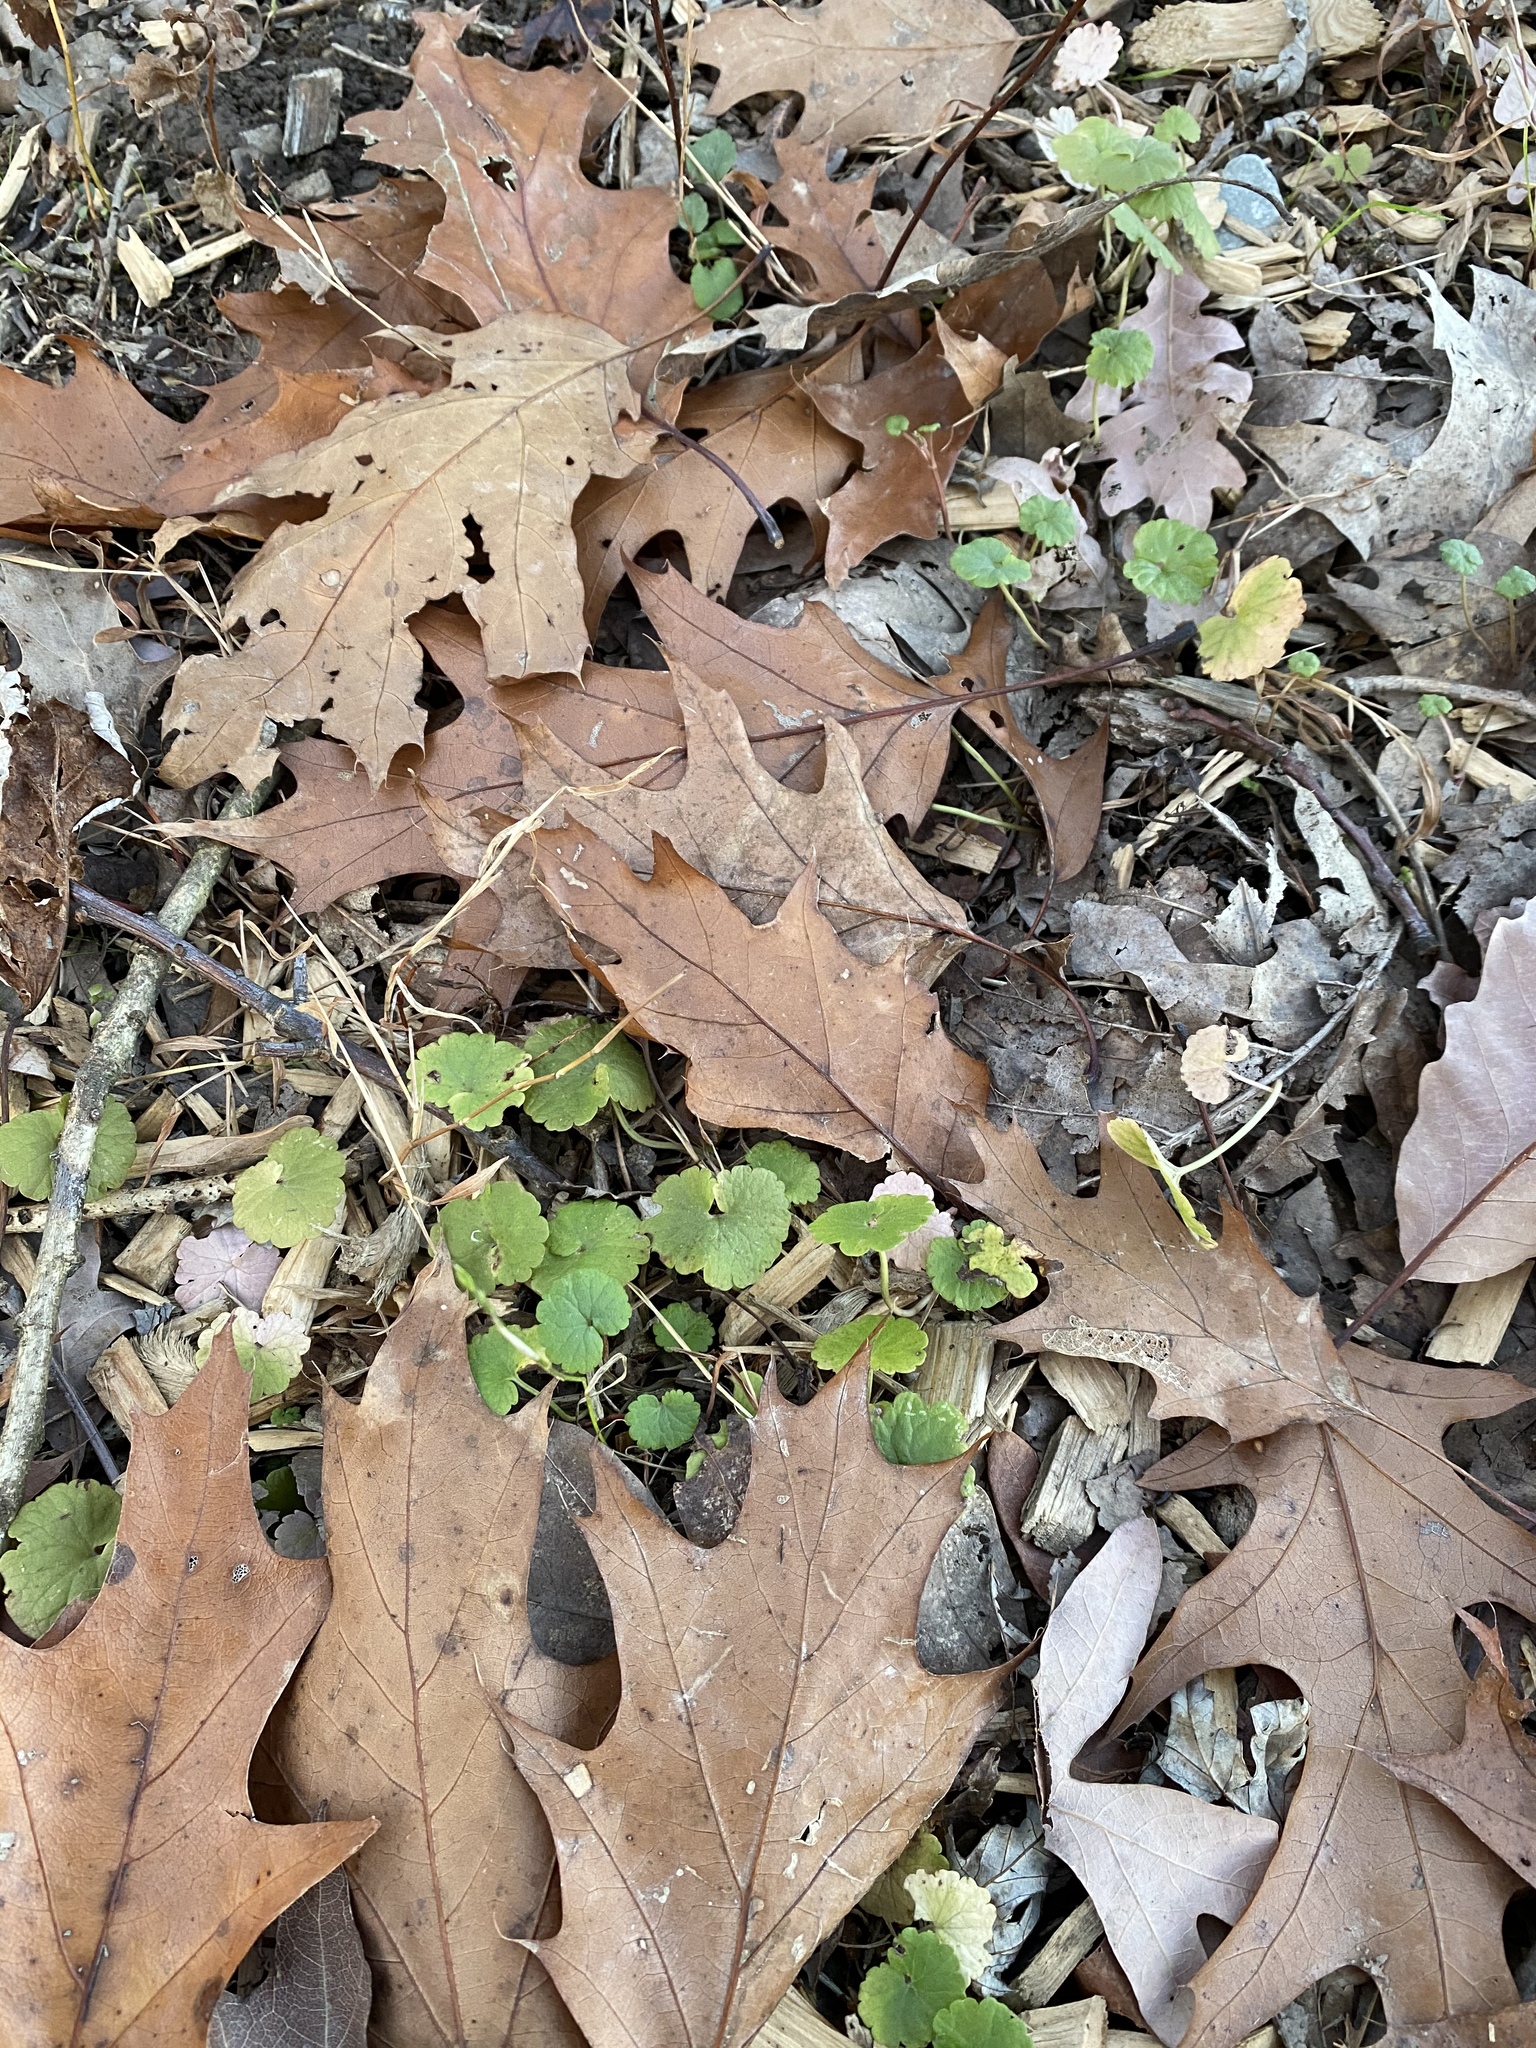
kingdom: Plantae
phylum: Tracheophyta
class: Magnoliopsida
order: Lamiales
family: Lamiaceae
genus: Glechoma
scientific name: Glechoma hederacea
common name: Ground ivy
